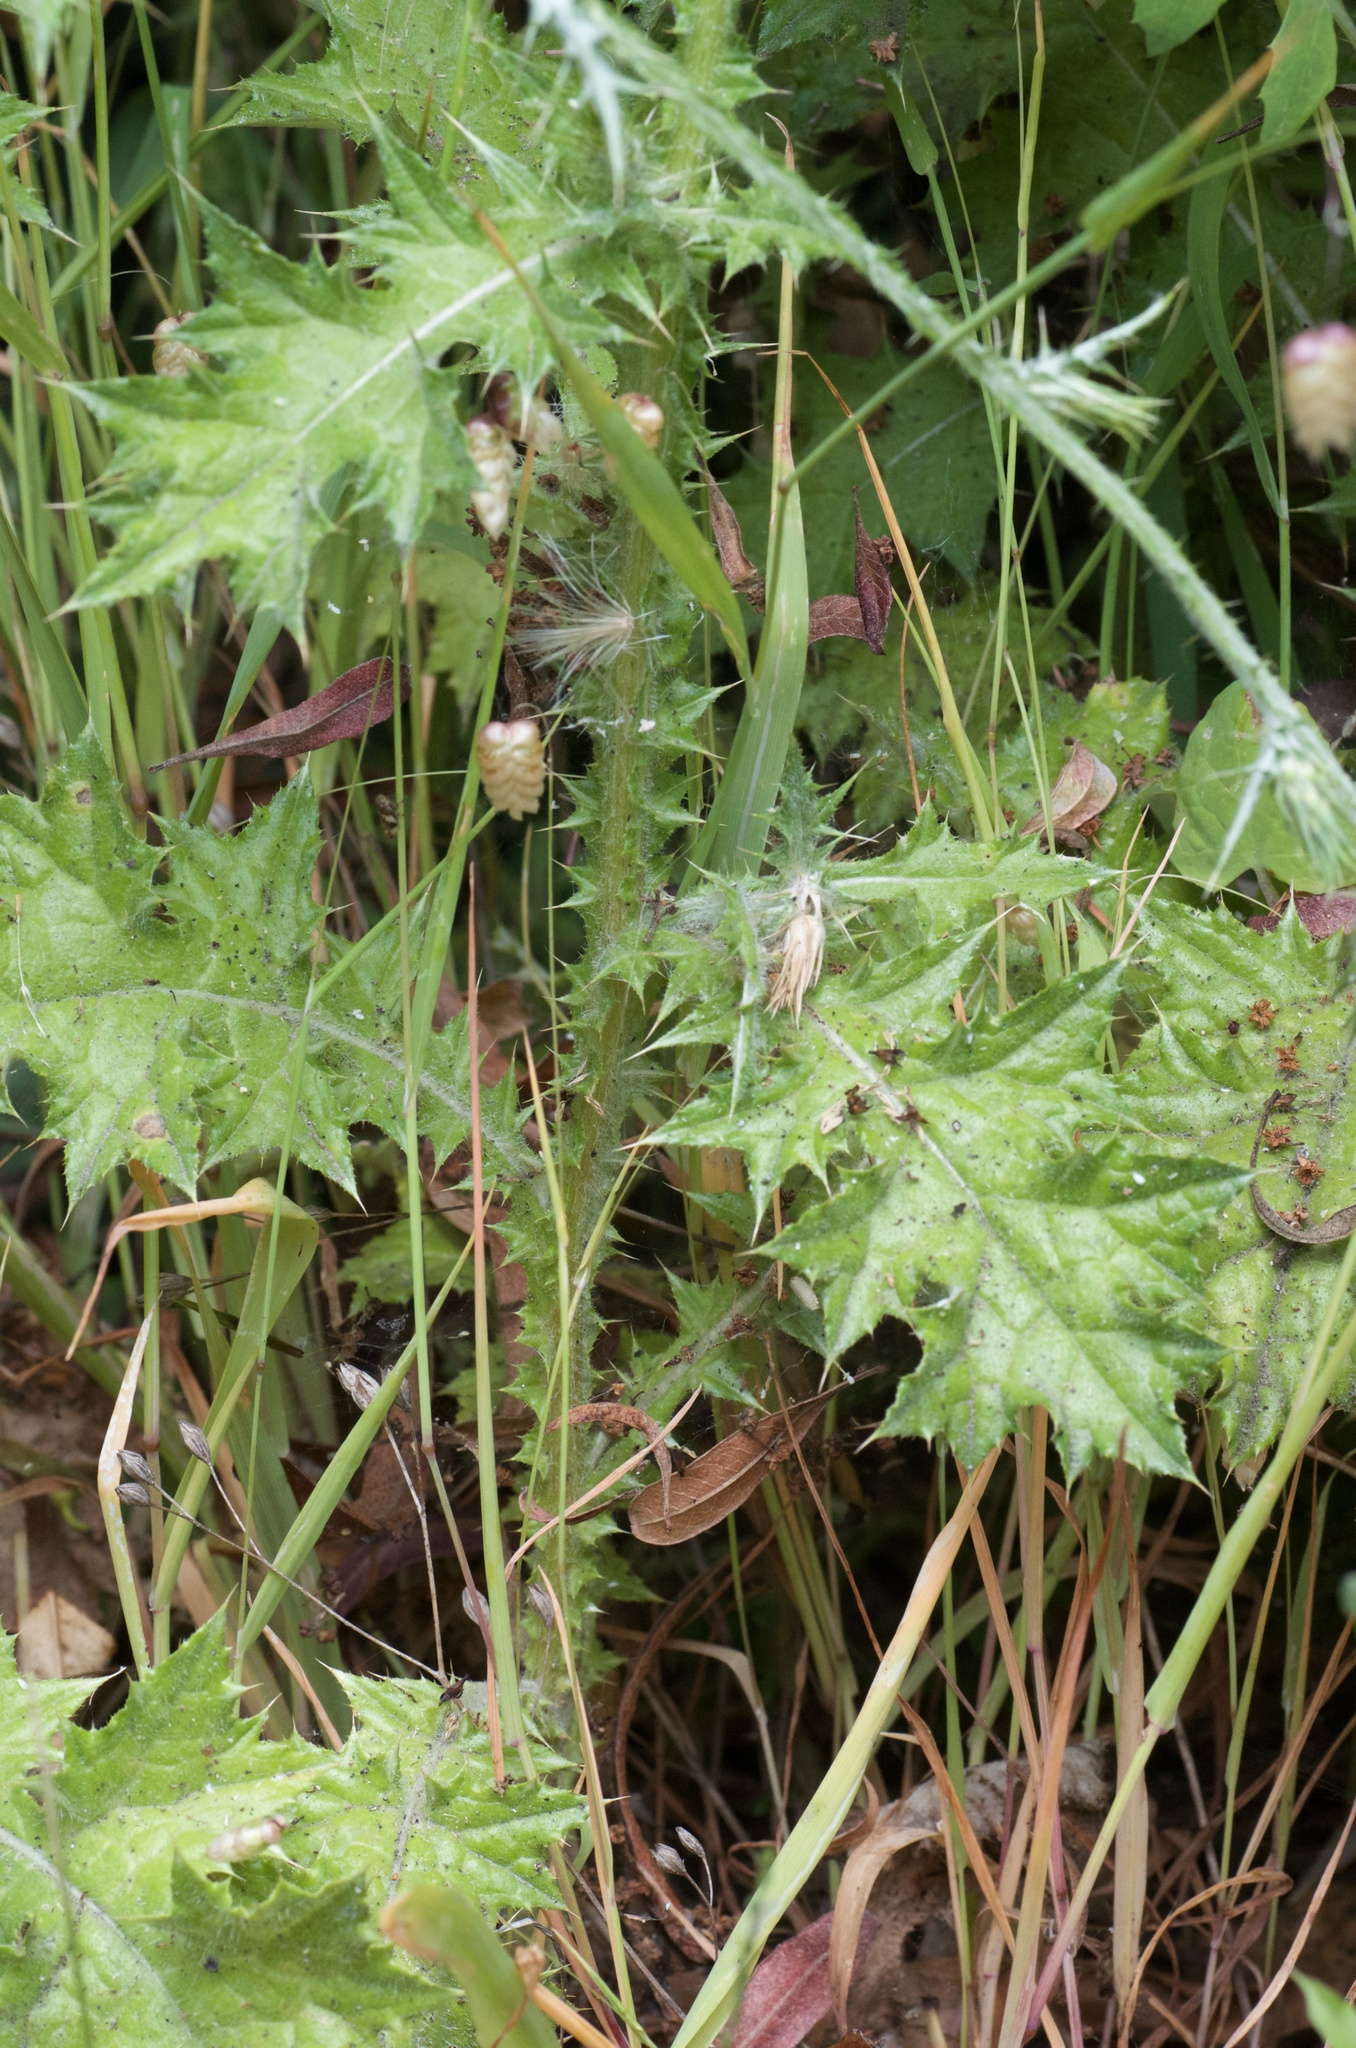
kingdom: Plantae
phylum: Tracheophyta
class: Magnoliopsida
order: Asterales
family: Asteraceae
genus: Carduus
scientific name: Carduus pycnocephalus
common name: Plymouth thistle
